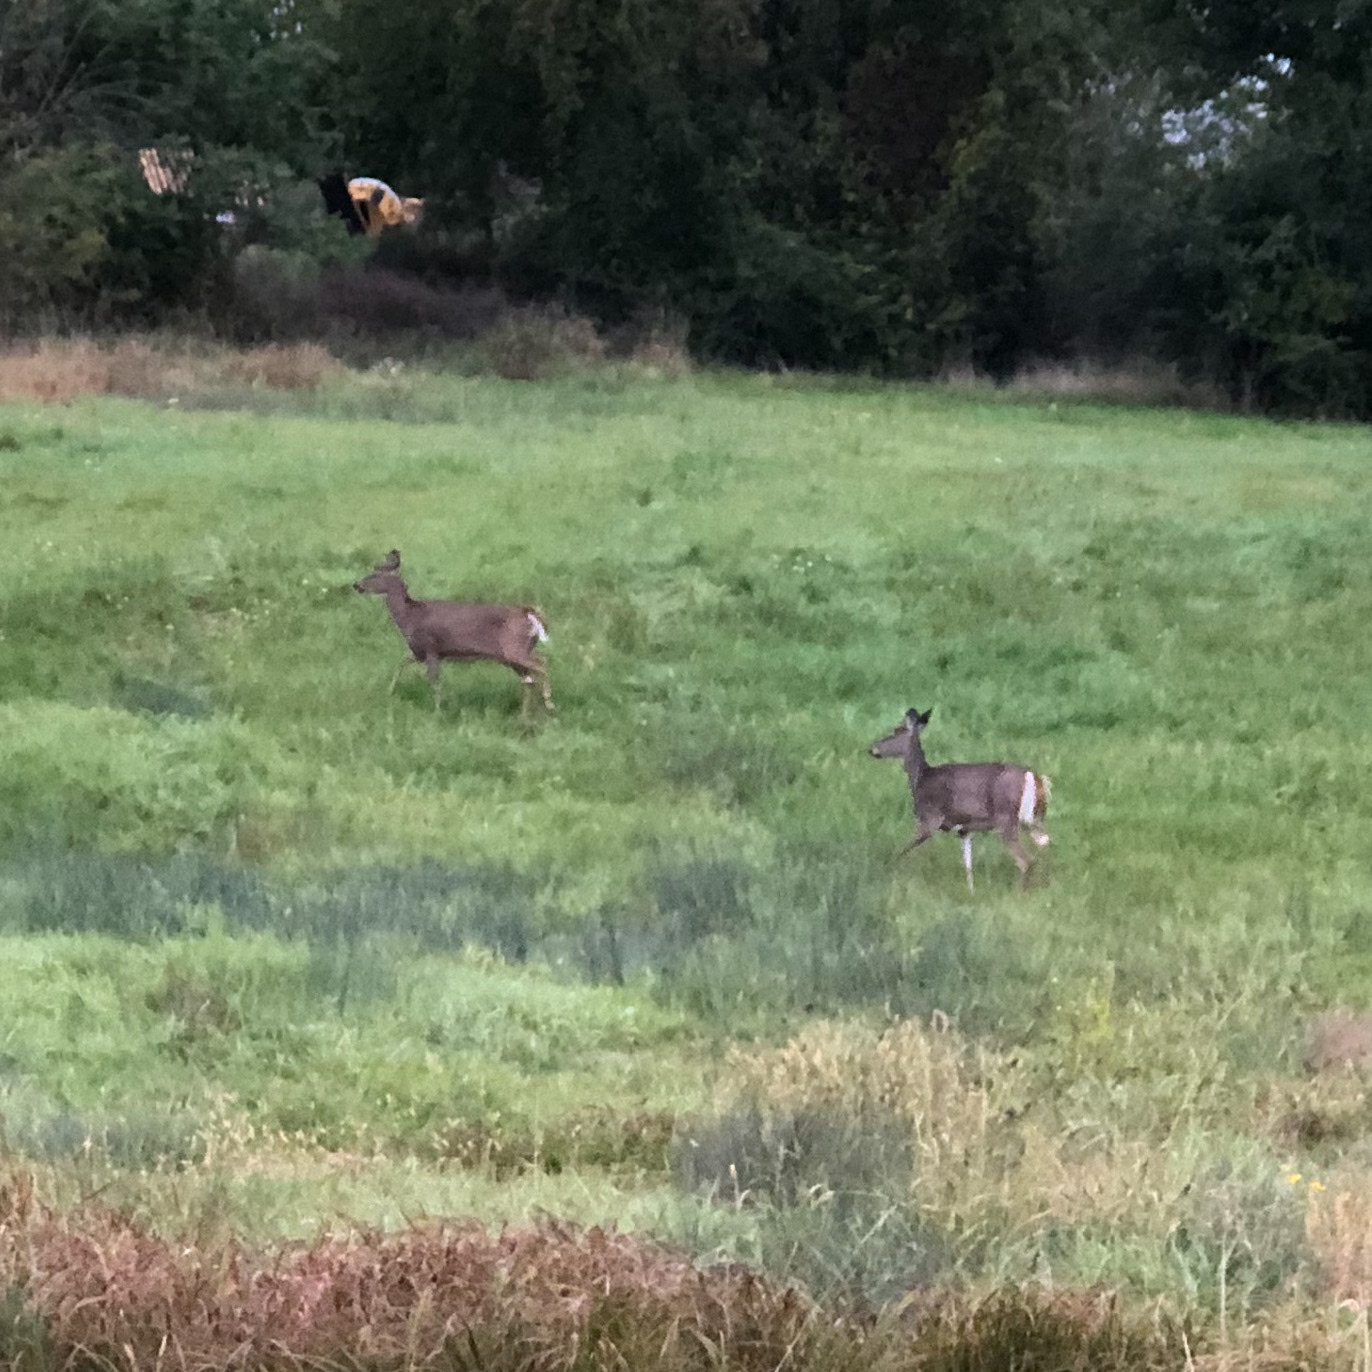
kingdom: Animalia
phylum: Chordata
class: Mammalia
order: Artiodactyla
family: Cervidae
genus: Odocoileus
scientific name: Odocoileus virginianus
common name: White-tailed deer
